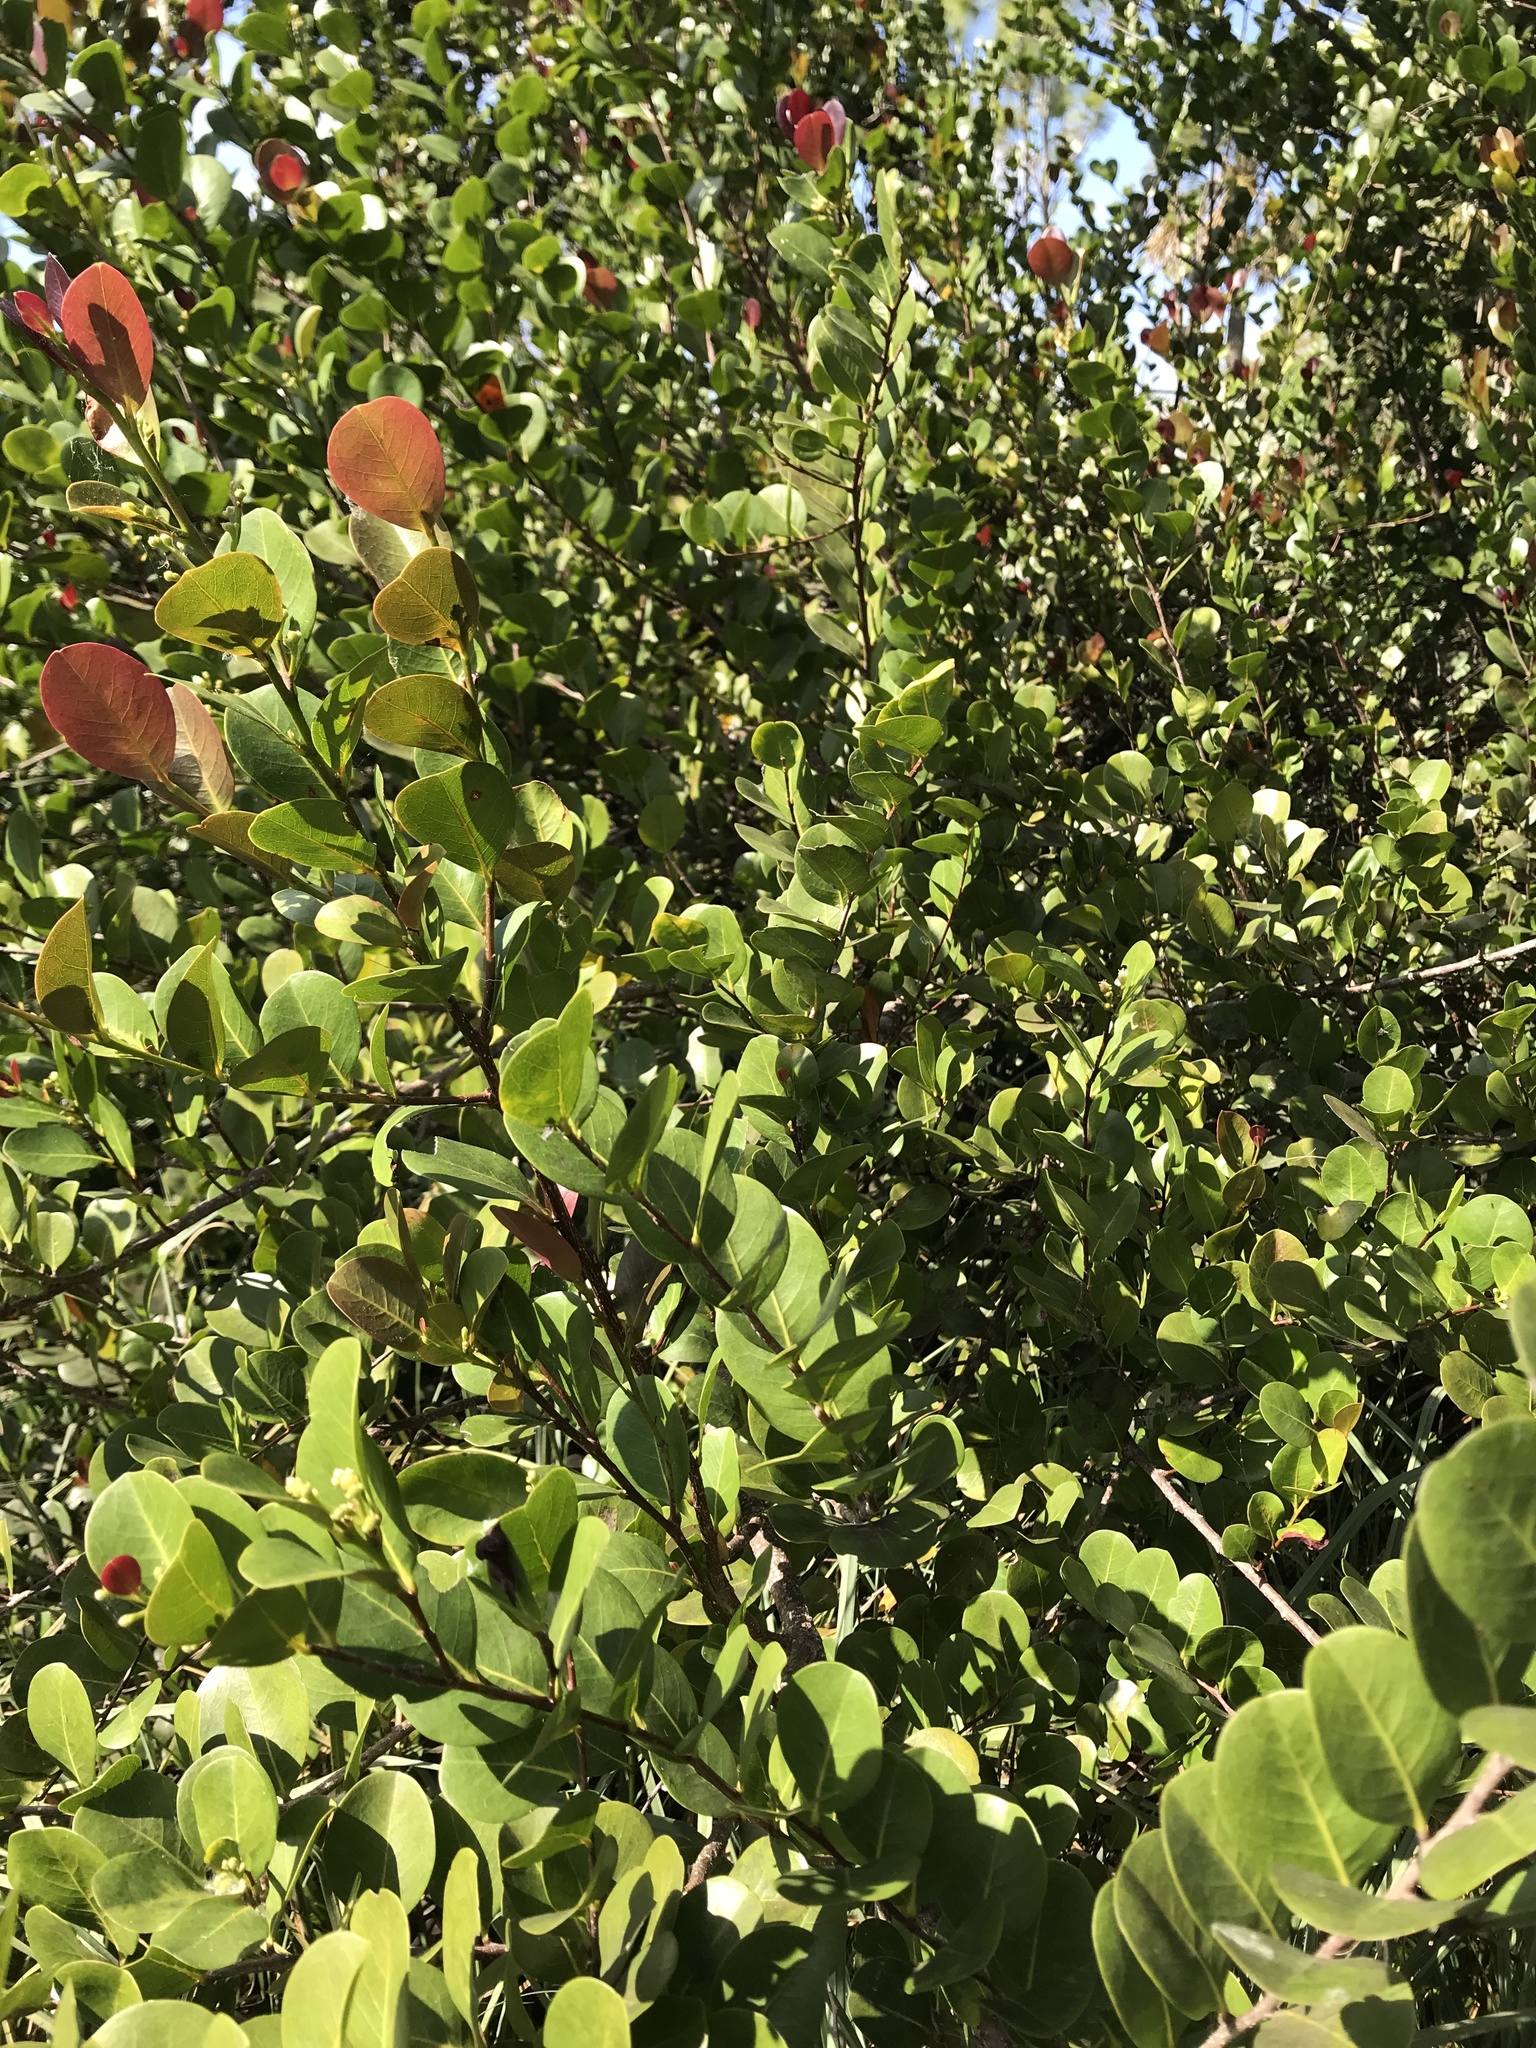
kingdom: Plantae
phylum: Tracheophyta
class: Magnoliopsida
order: Malpighiales
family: Chrysobalanaceae
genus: Chrysobalanus
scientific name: Chrysobalanus icaco
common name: Coco plum
